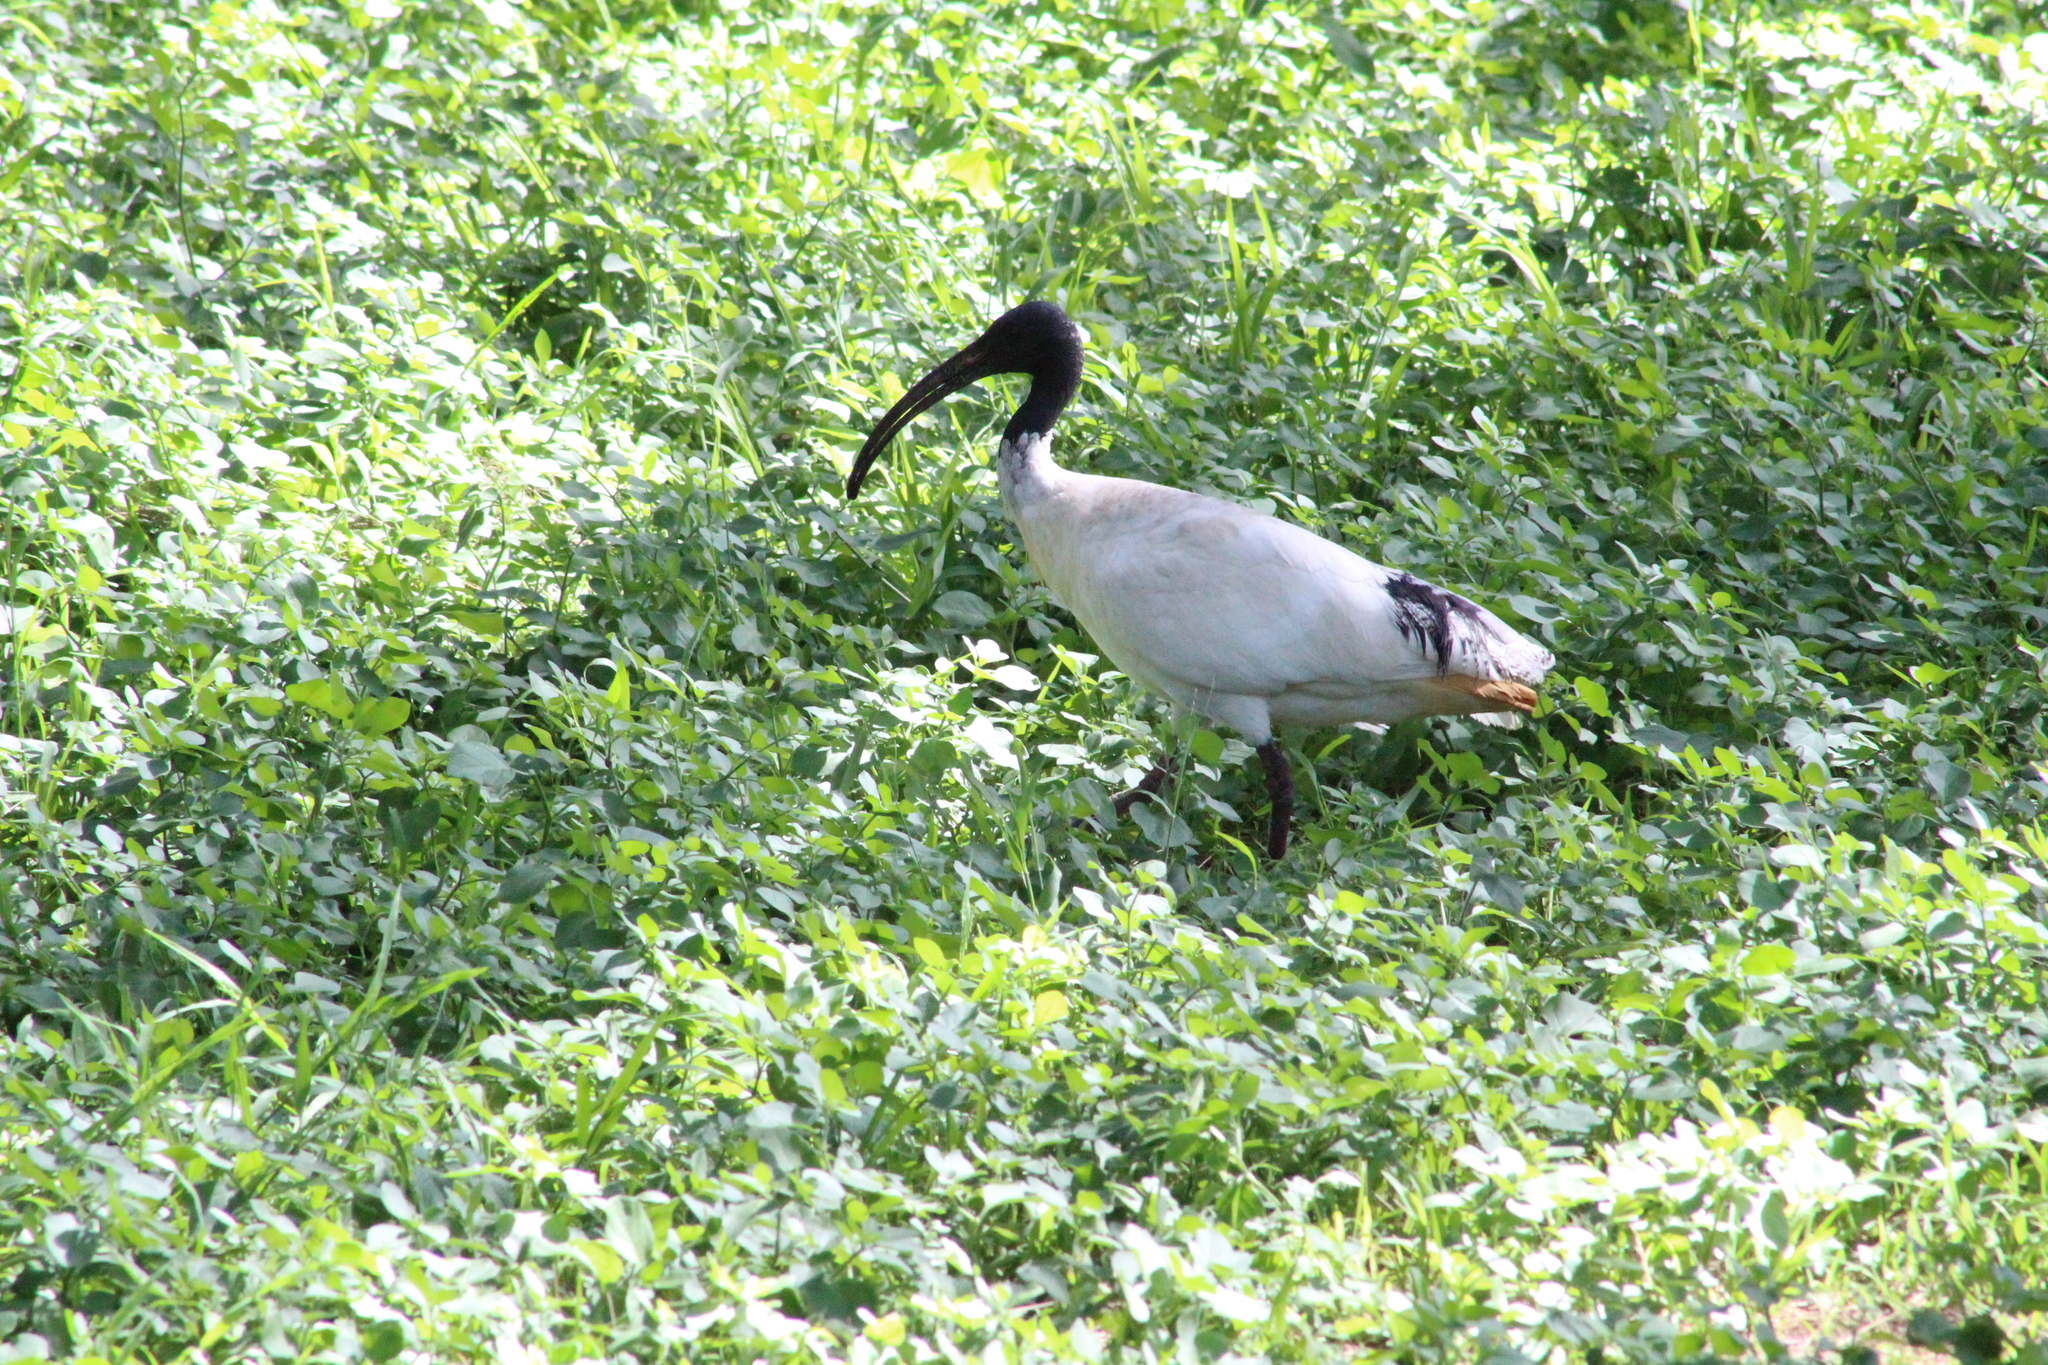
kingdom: Animalia
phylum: Chordata
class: Aves
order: Pelecaniformes
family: Threskiornithidae
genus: Threskiornis
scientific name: Threskiornis molucca
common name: Australian white ibis
